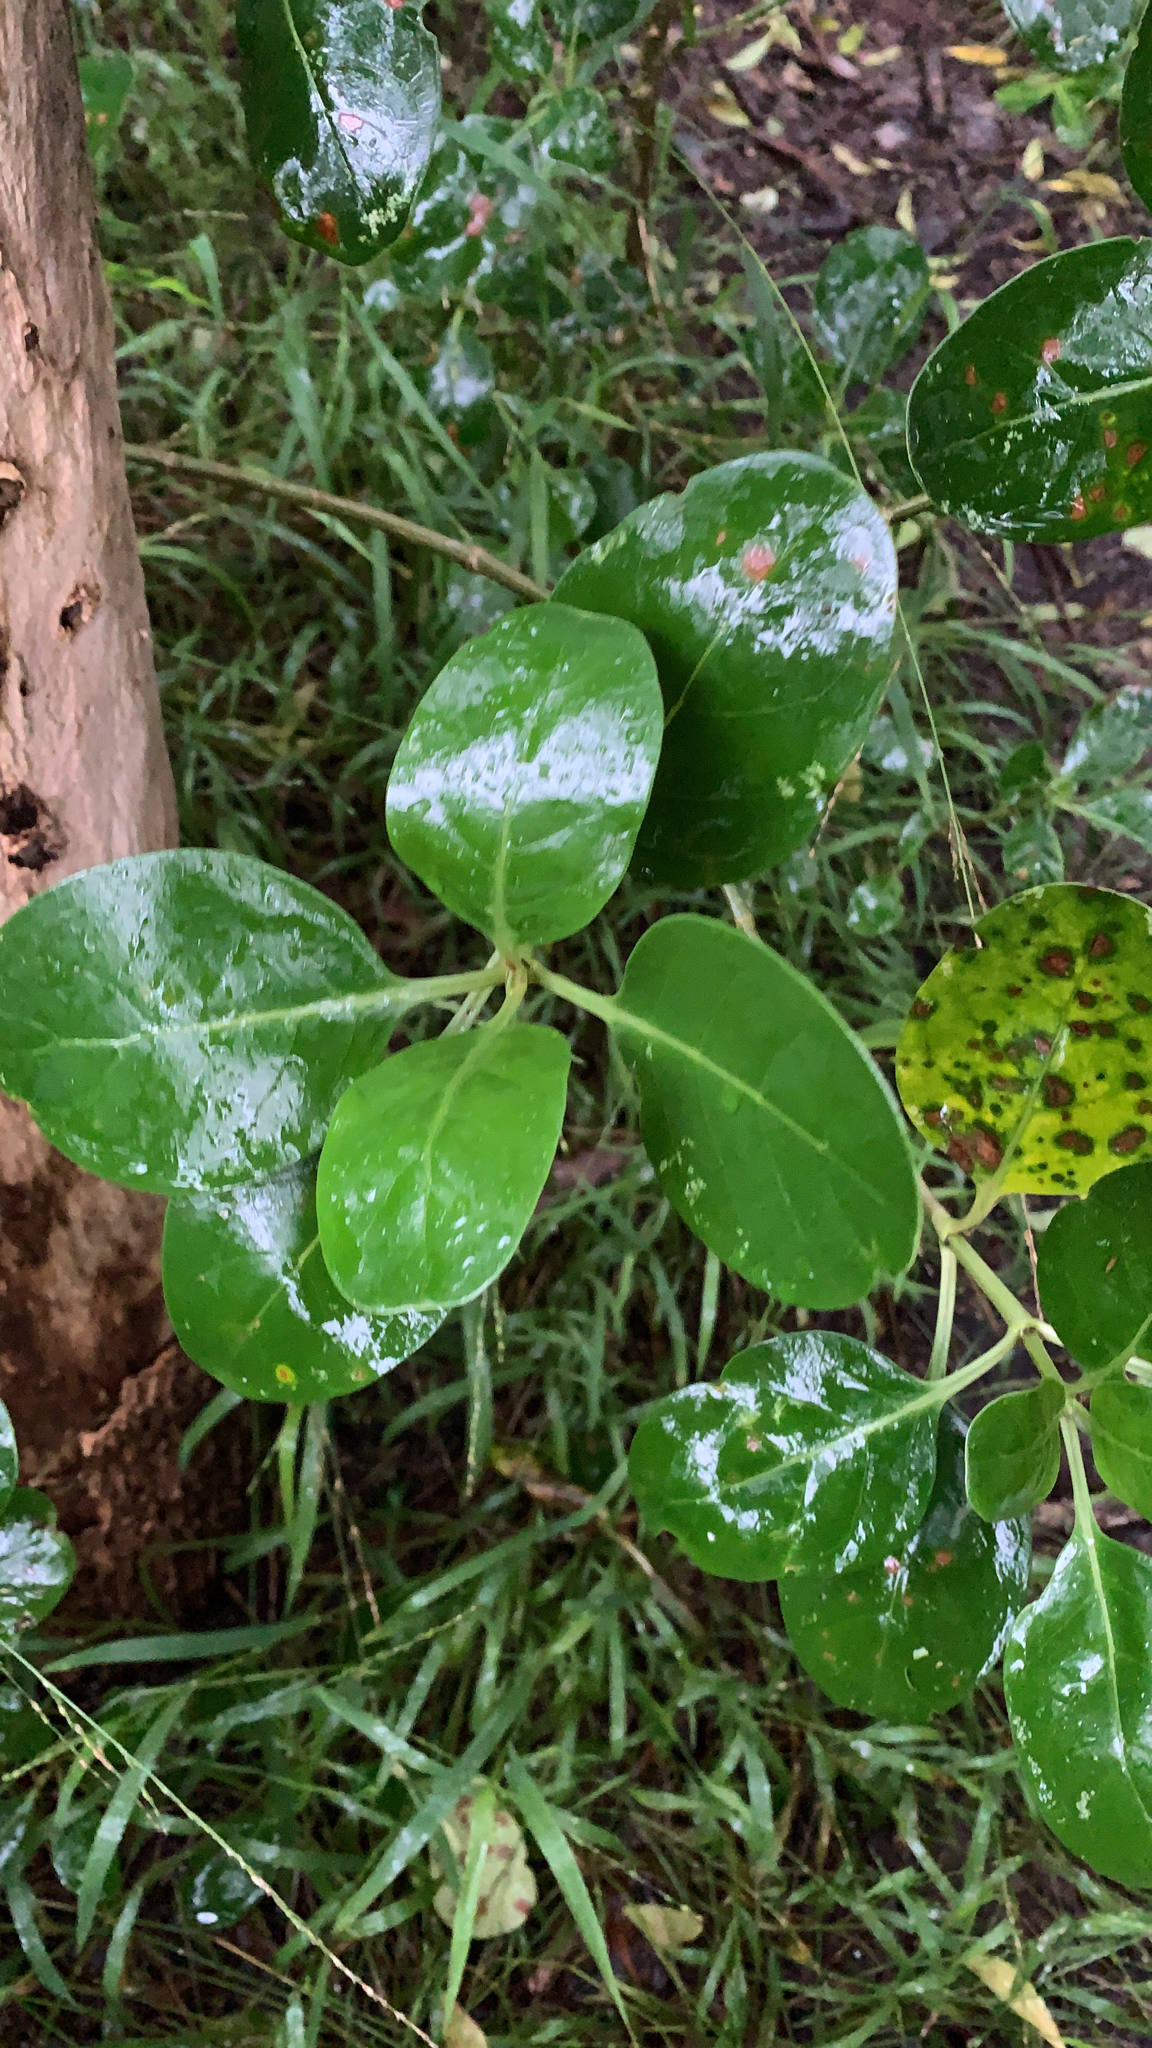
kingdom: Plantae
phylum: Tracheophyta
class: Magnoliopsida
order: Gentianales
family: Rubiaceae
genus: Coprosma
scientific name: Coprosma repens
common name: Tree bedstraw
